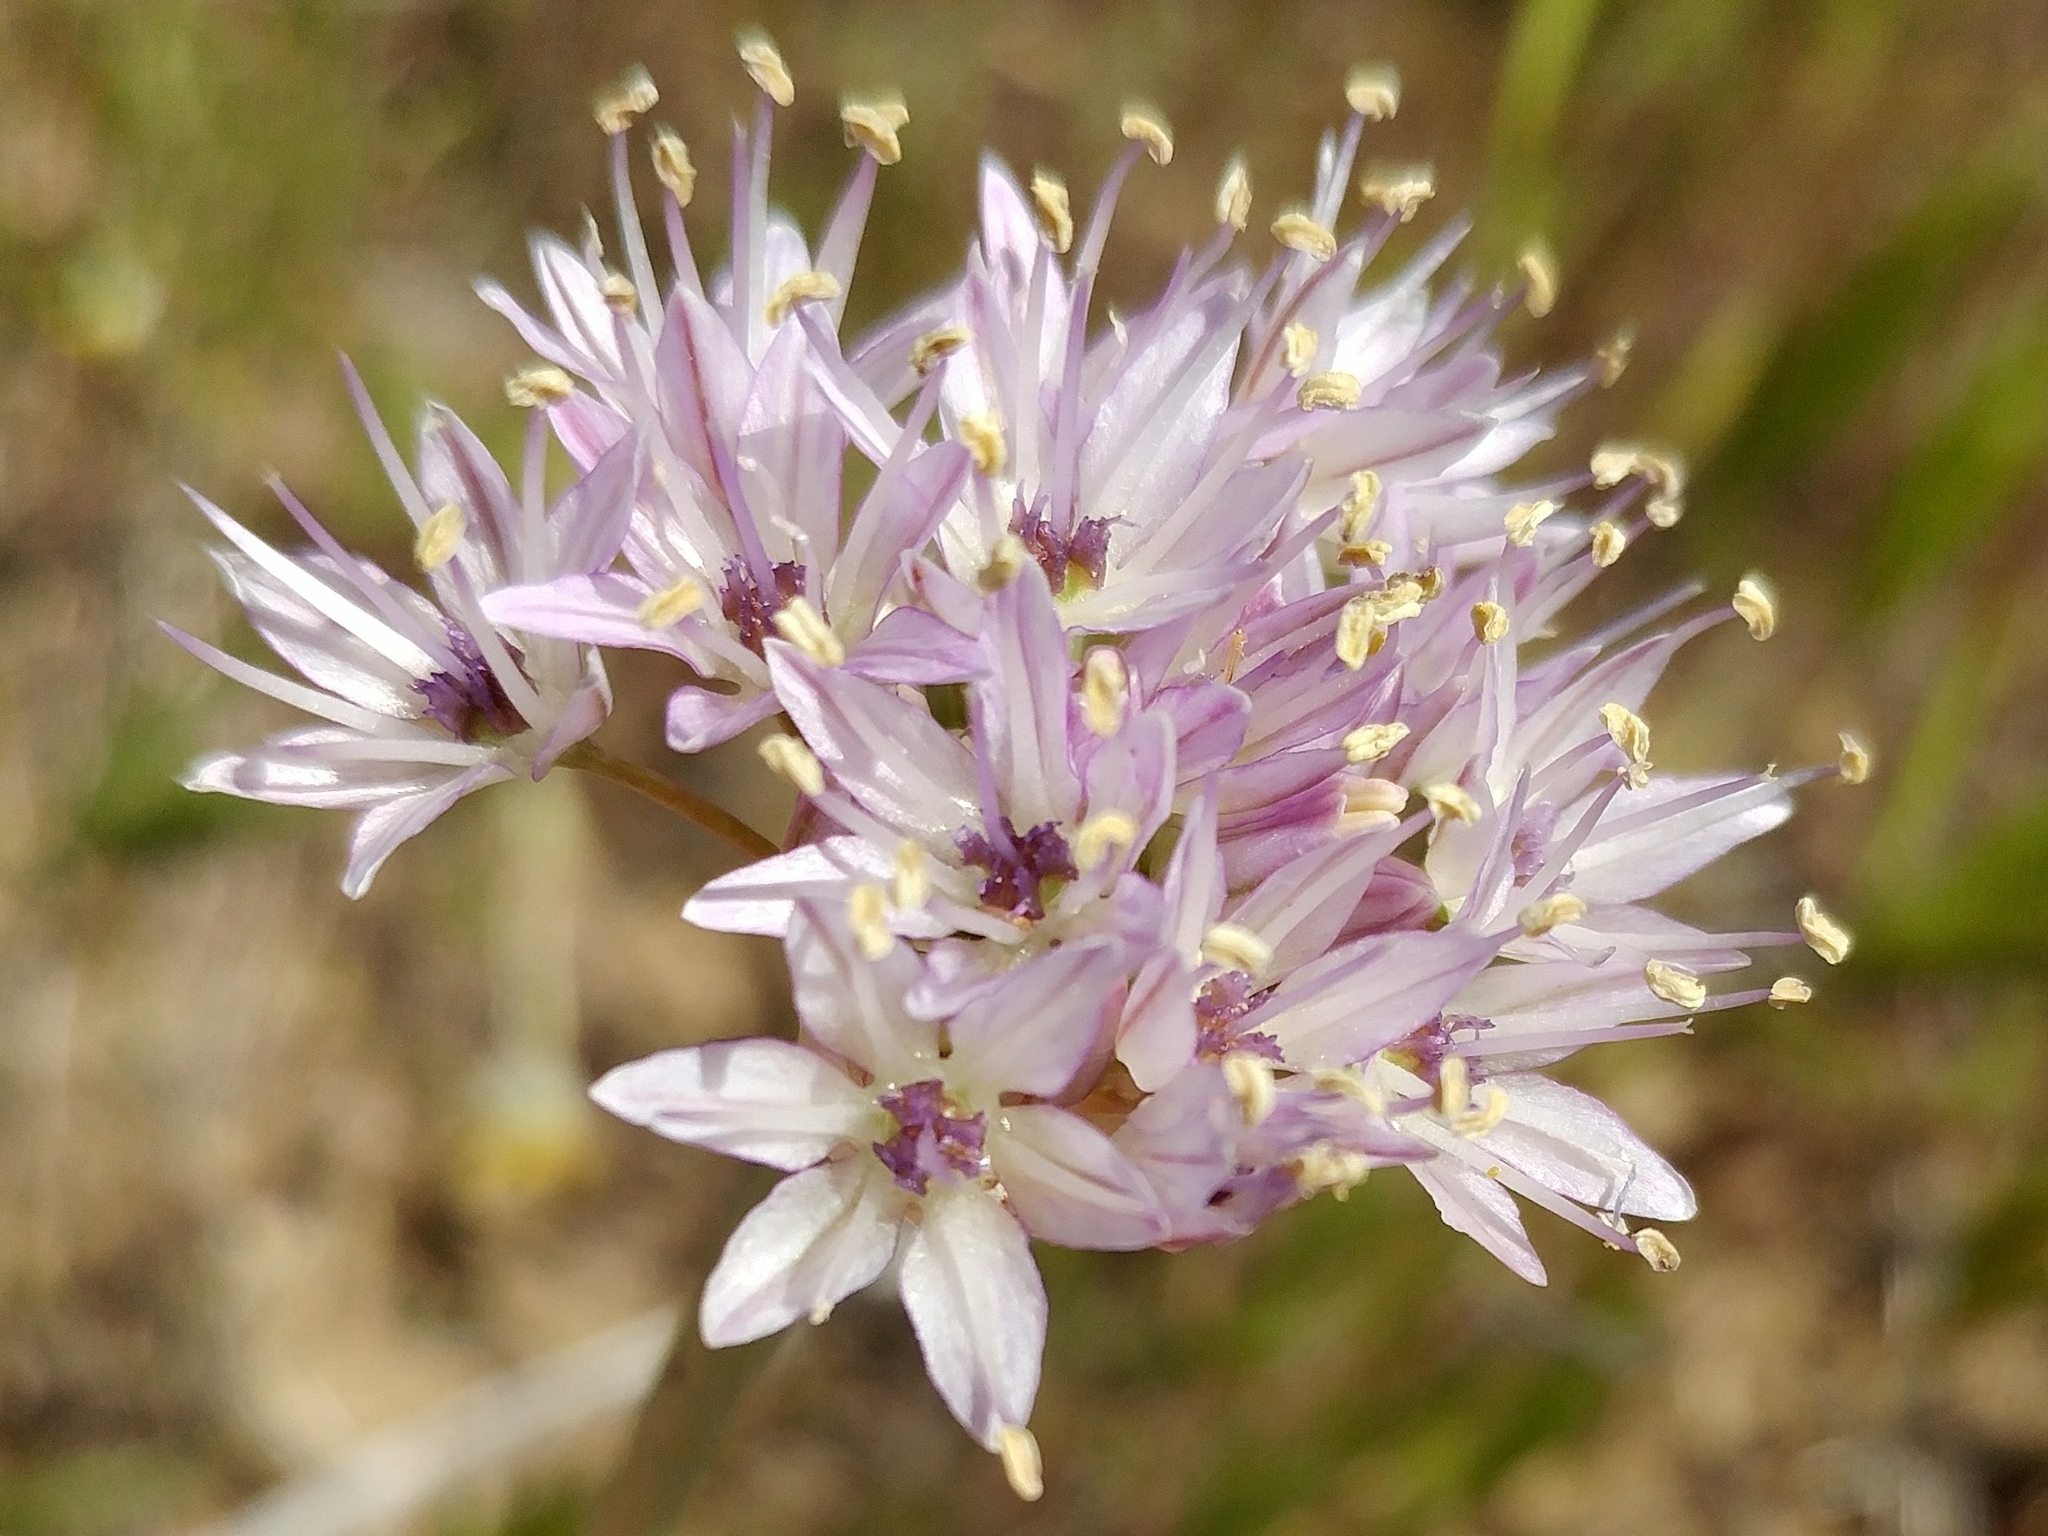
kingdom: Plantae
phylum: Tracheophyta
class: Liliopsida
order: Asparagales
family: Amaryllidaceae
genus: Allium
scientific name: Allium howellii
